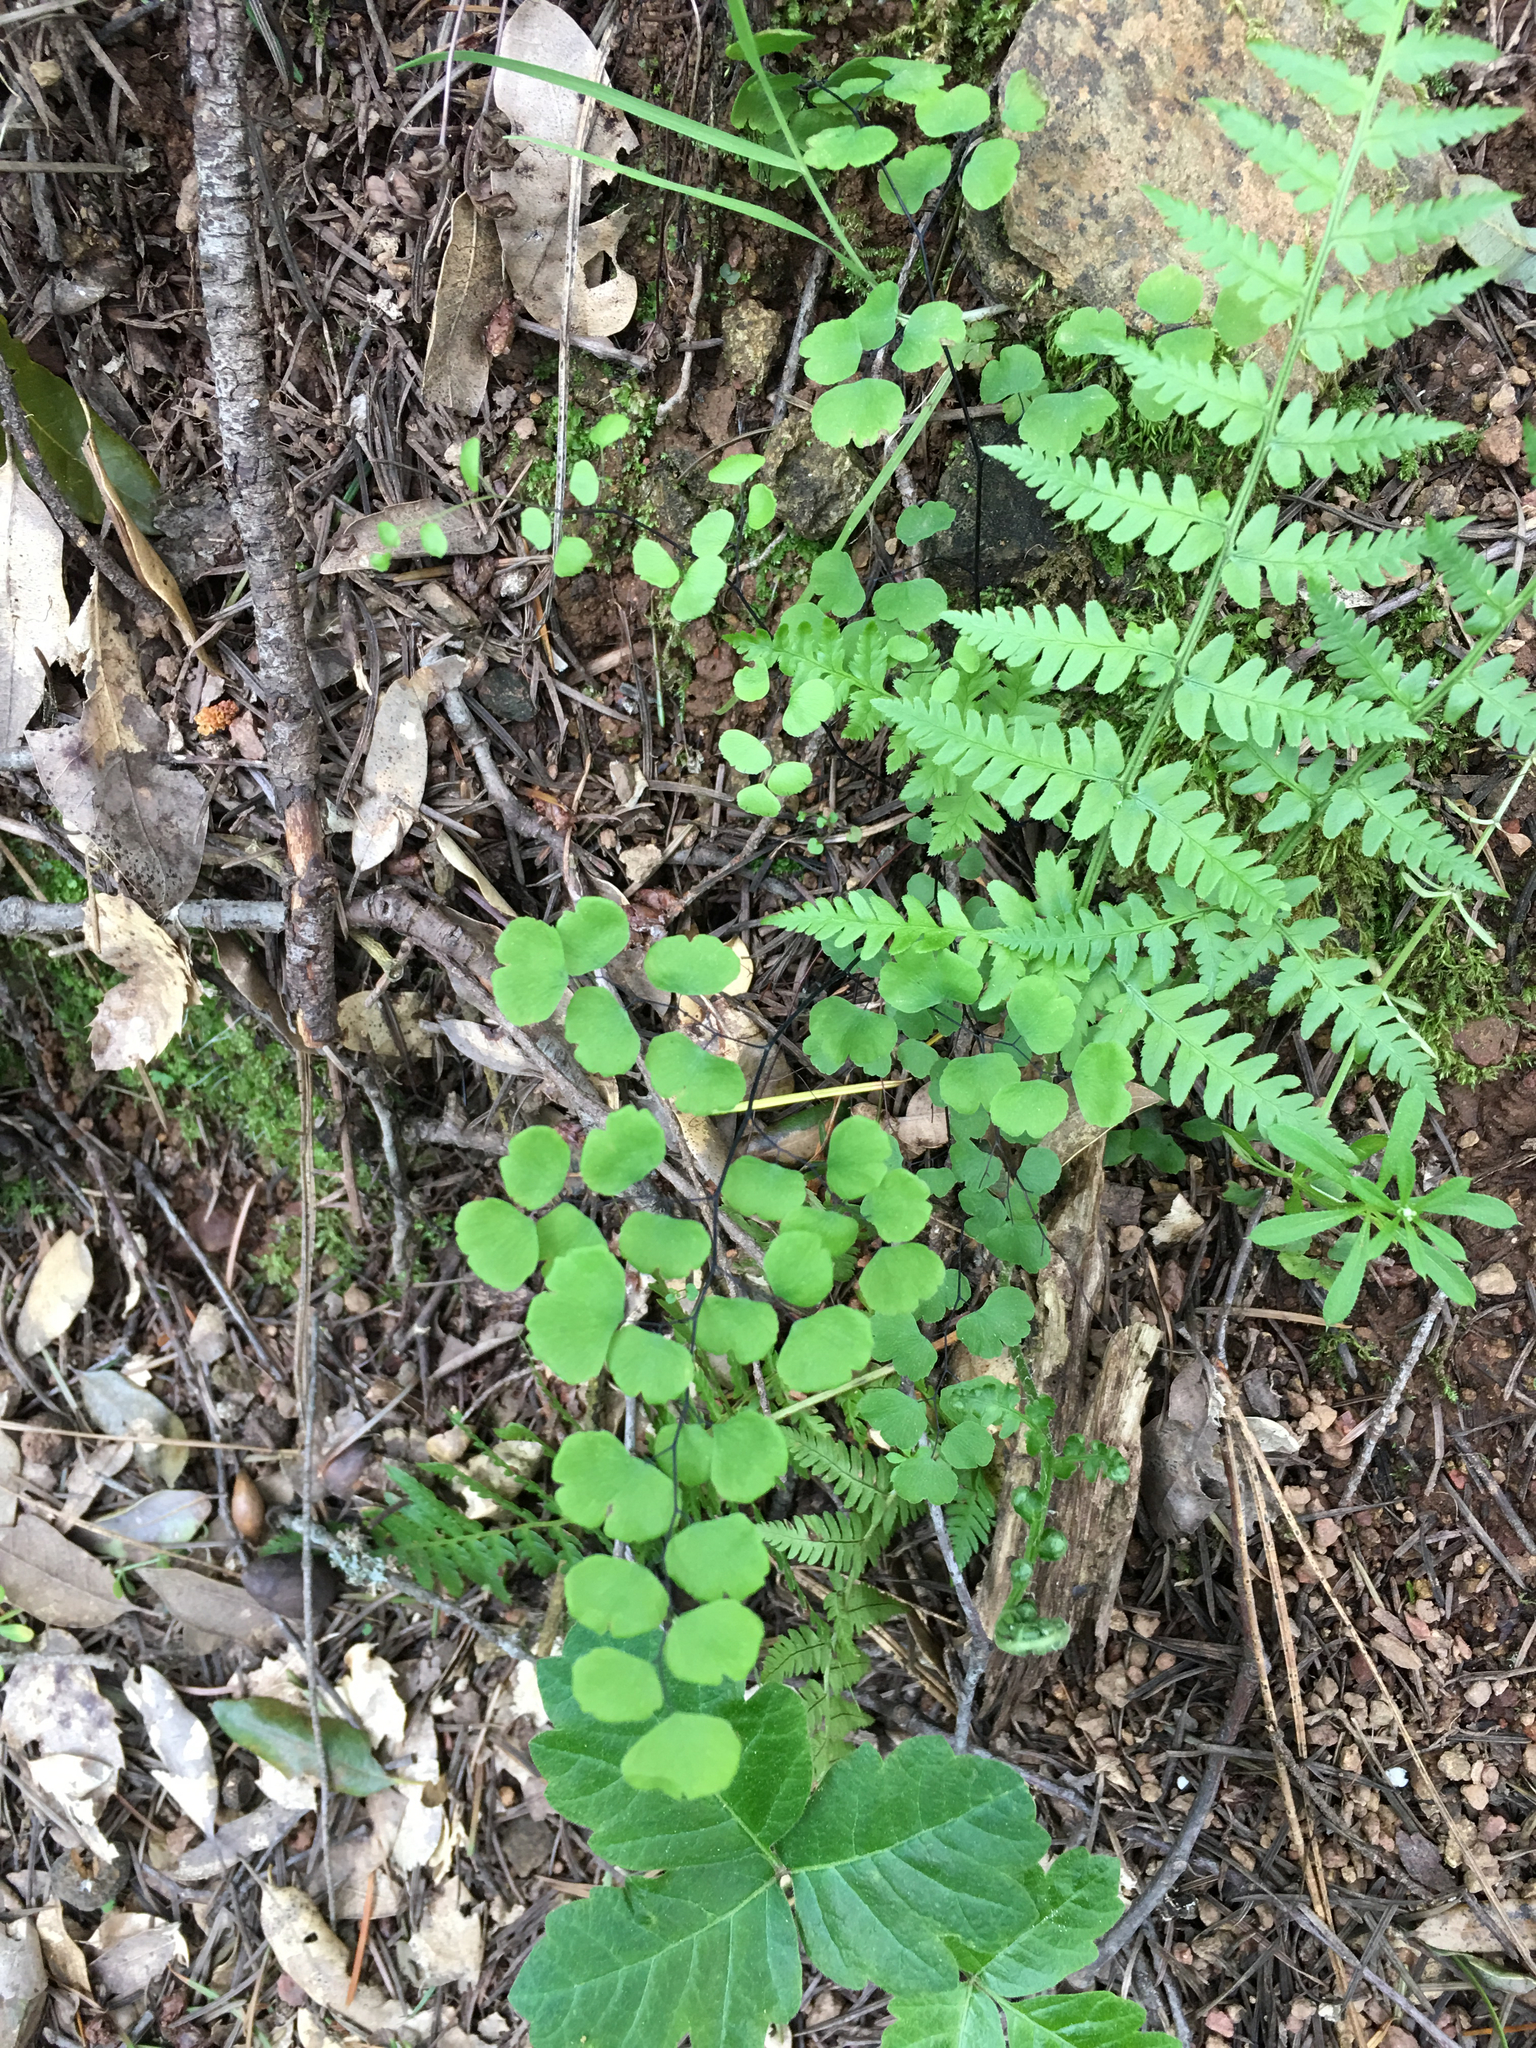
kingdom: Plantae
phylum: Tracheophyta
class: Polypodiopsida
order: Polypodiales
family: Pteridaceae
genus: Adiantum
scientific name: Adiantum jordanii
